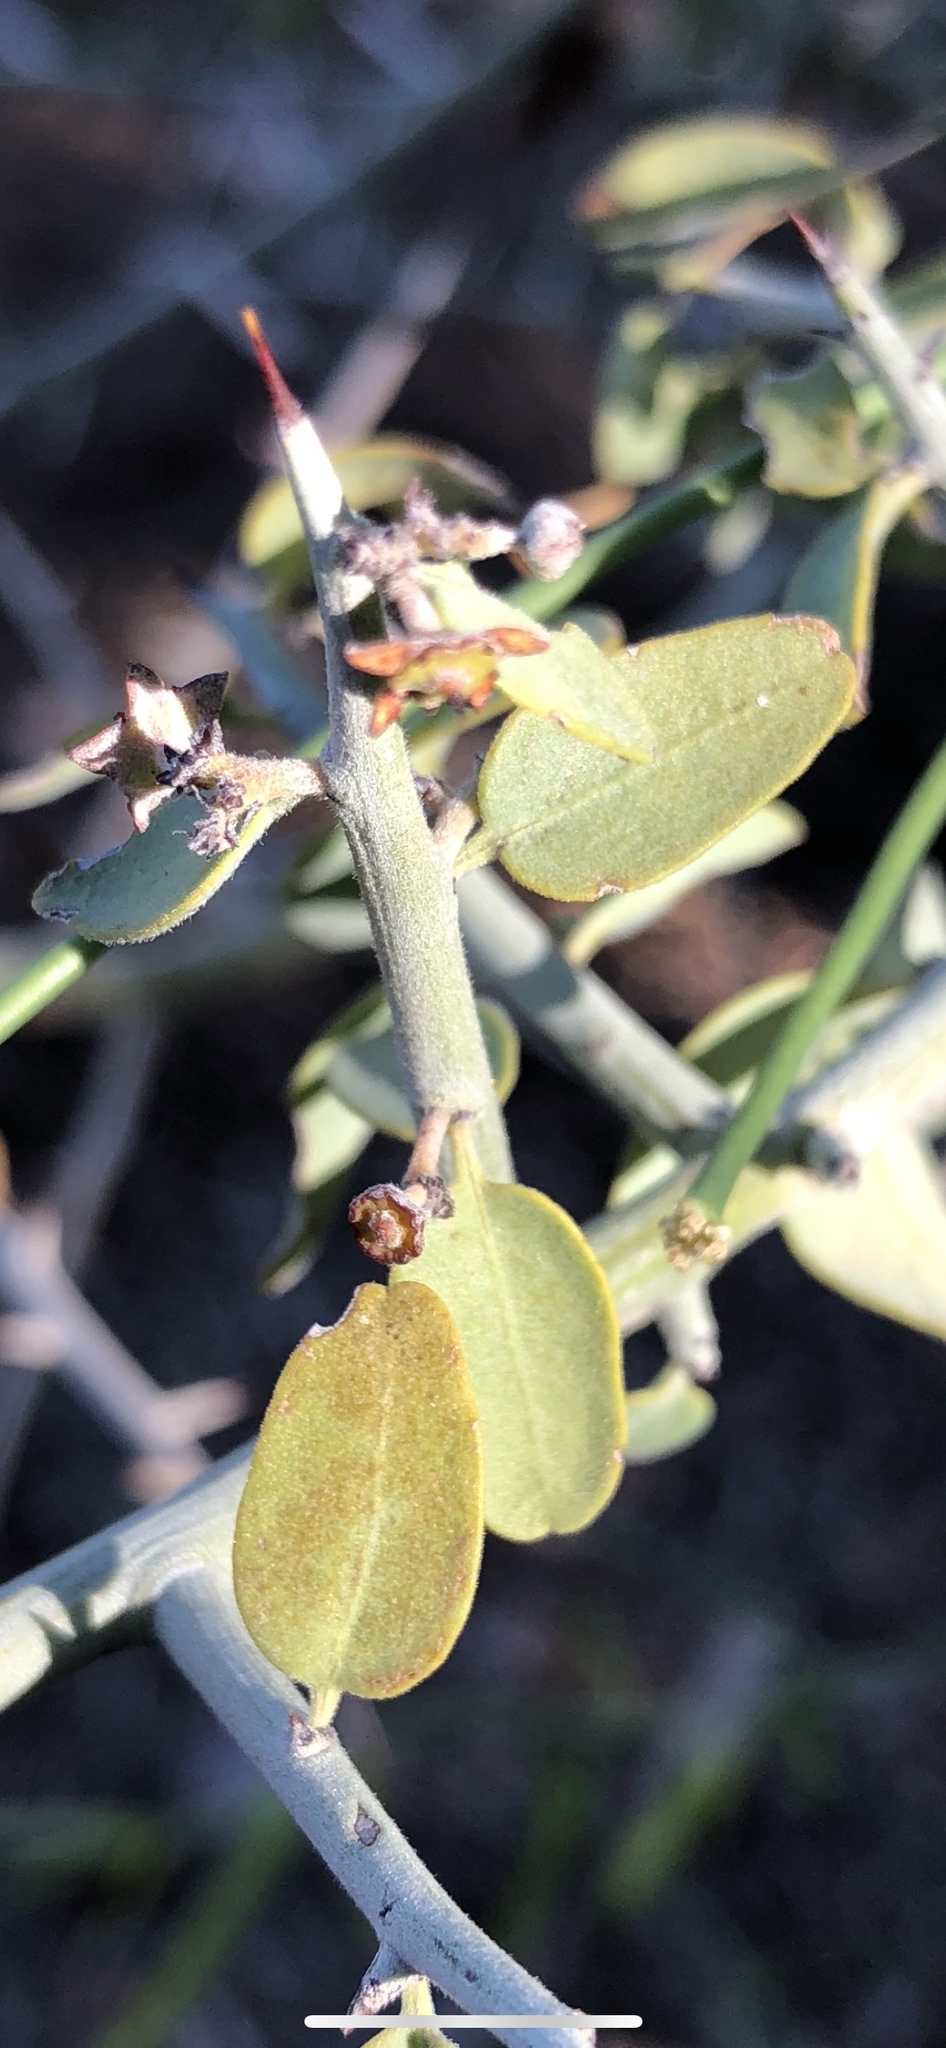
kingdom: Plantae
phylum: Tracheophyta
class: Magnoliopsida
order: Rosales
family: Rhamnaceae
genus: Sarcomphalus
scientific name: Sarcomphalus obtusifolius
